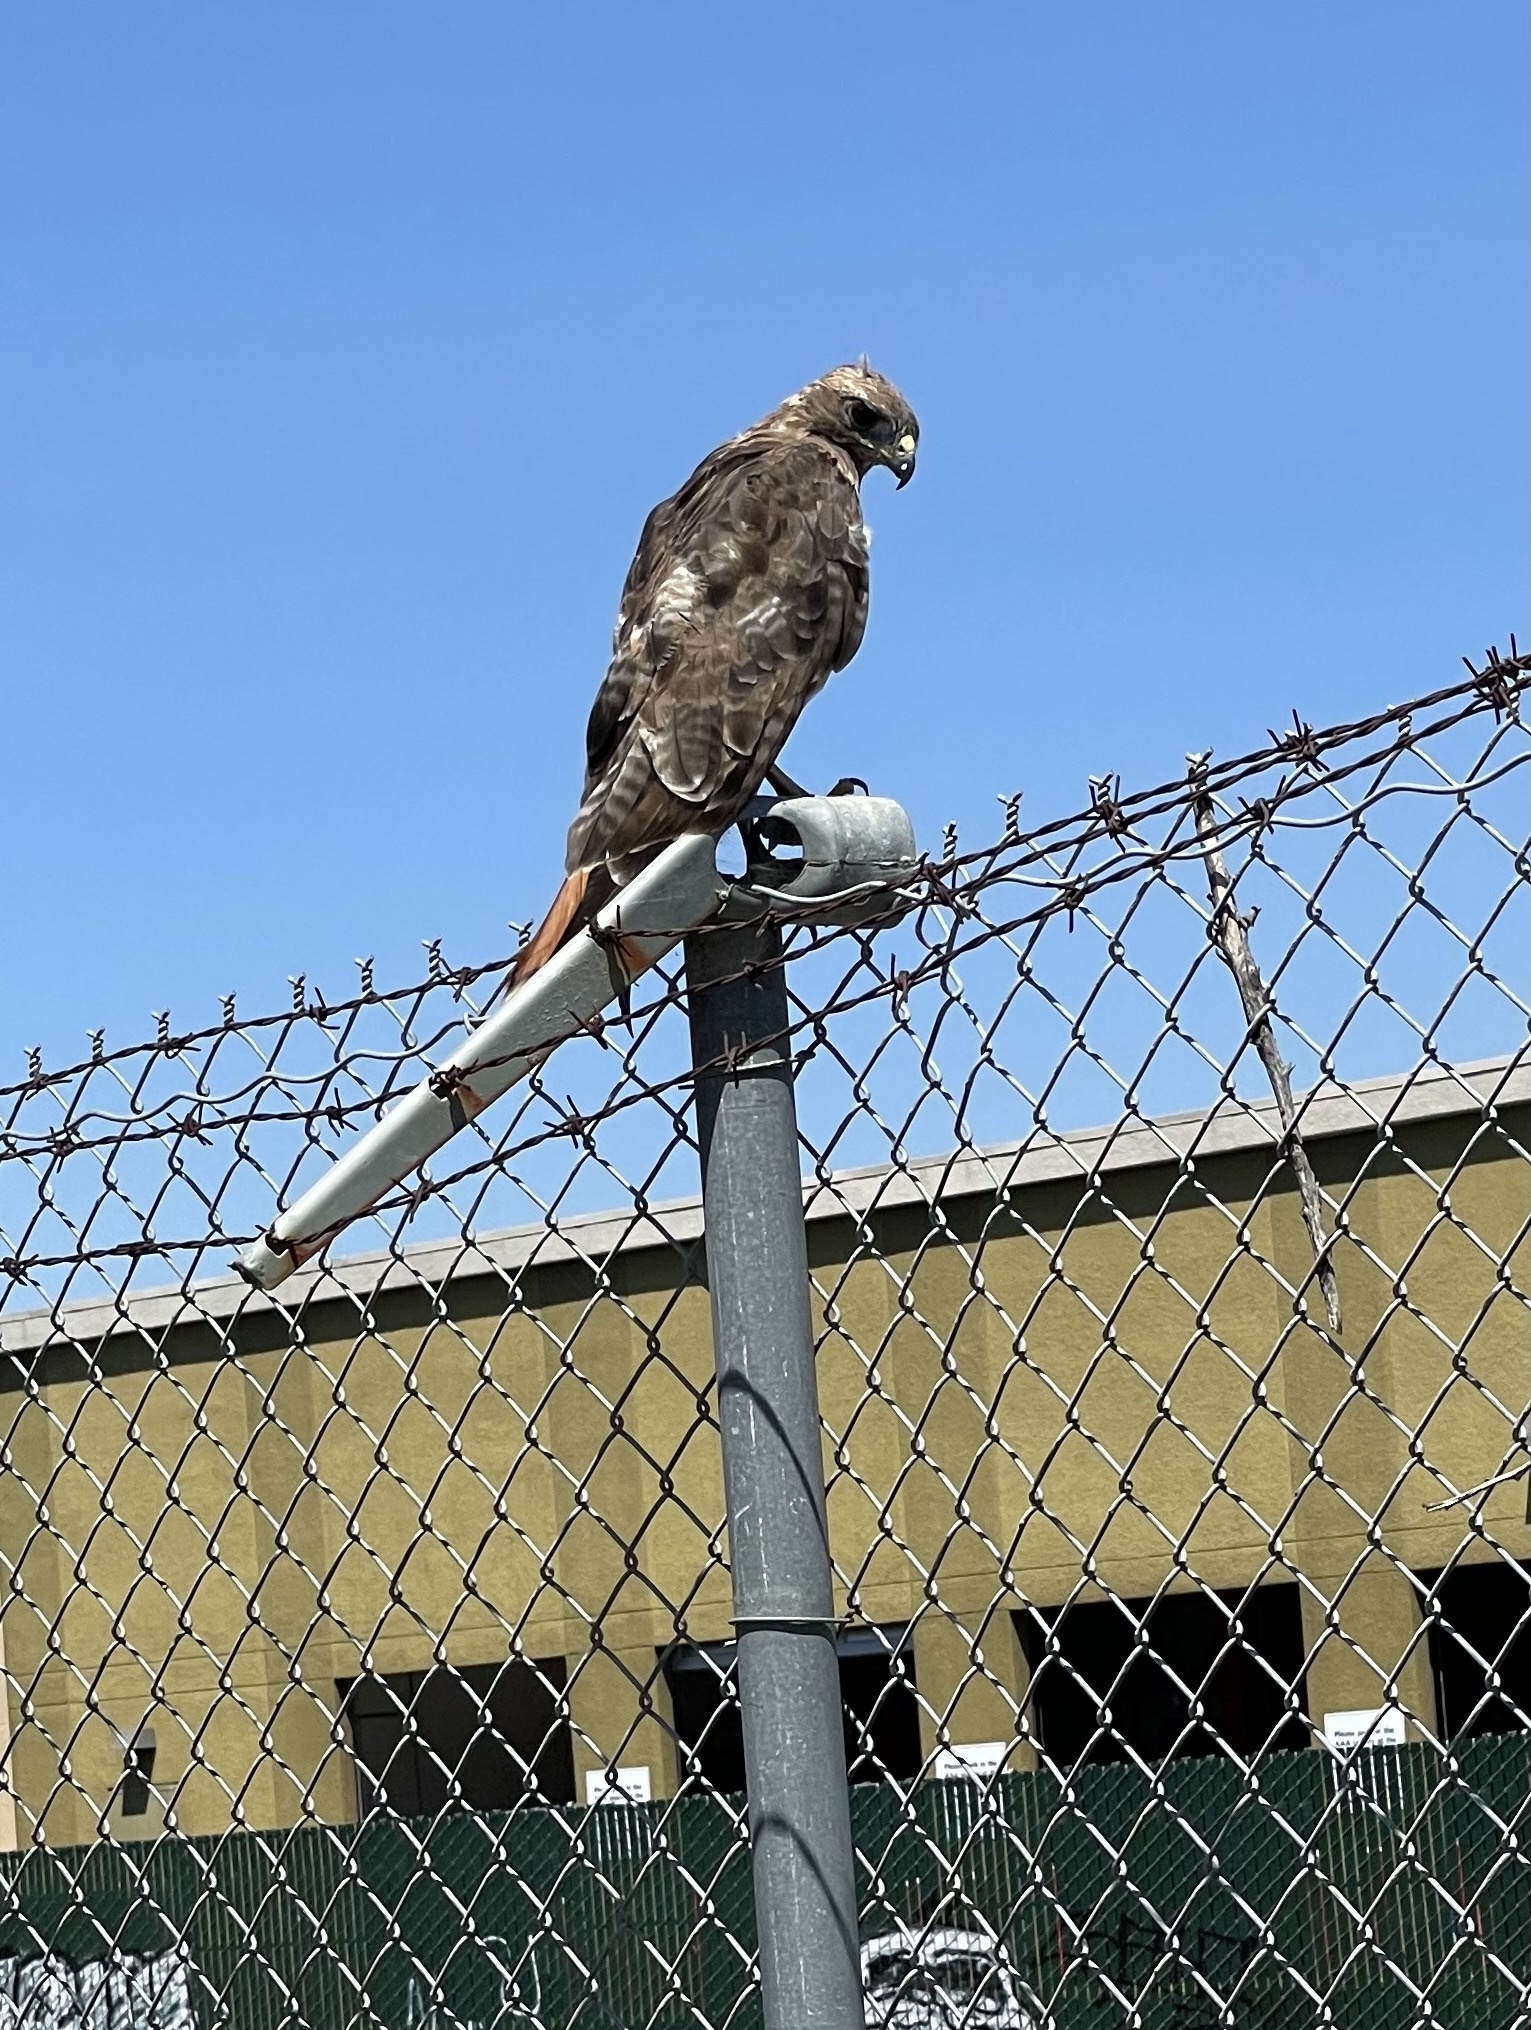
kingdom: Animalia
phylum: Chordata
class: Aves
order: Accipitriformes
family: Accipitridae
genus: Buteo
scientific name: Buteo jamaicensis
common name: Red-tailed hawk
